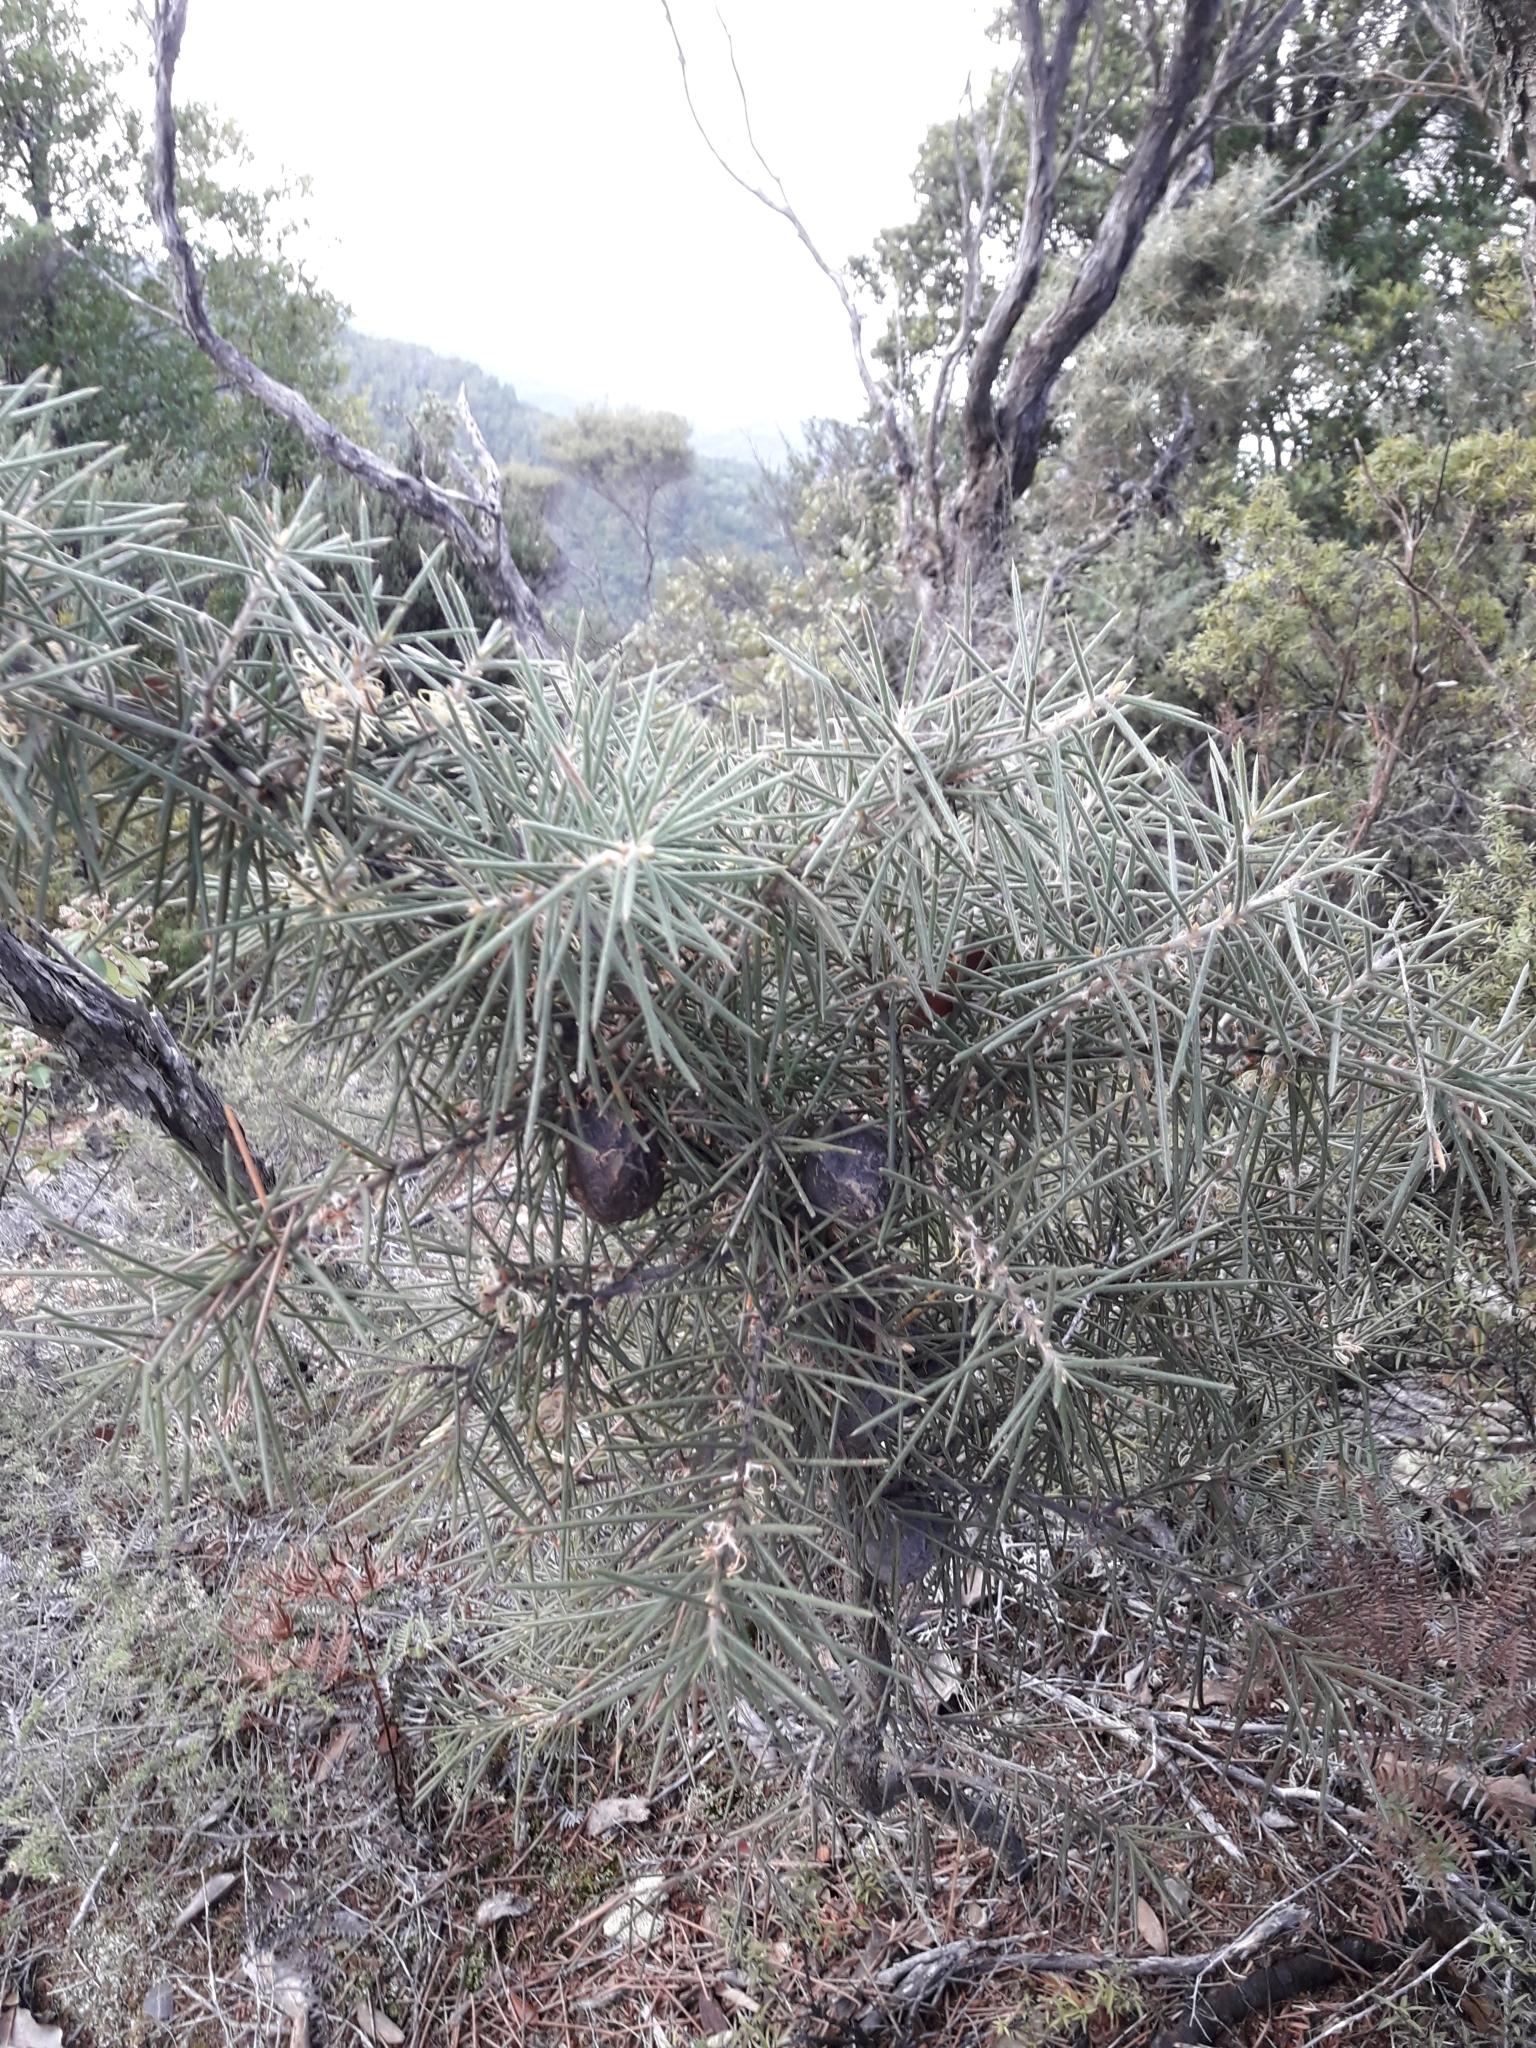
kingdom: Plantae
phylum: Tracheophyta
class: Magnoliopsida
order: Proteales
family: Proteaceae
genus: Hakea
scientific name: Hakea gibbosa
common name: Rock hakea
